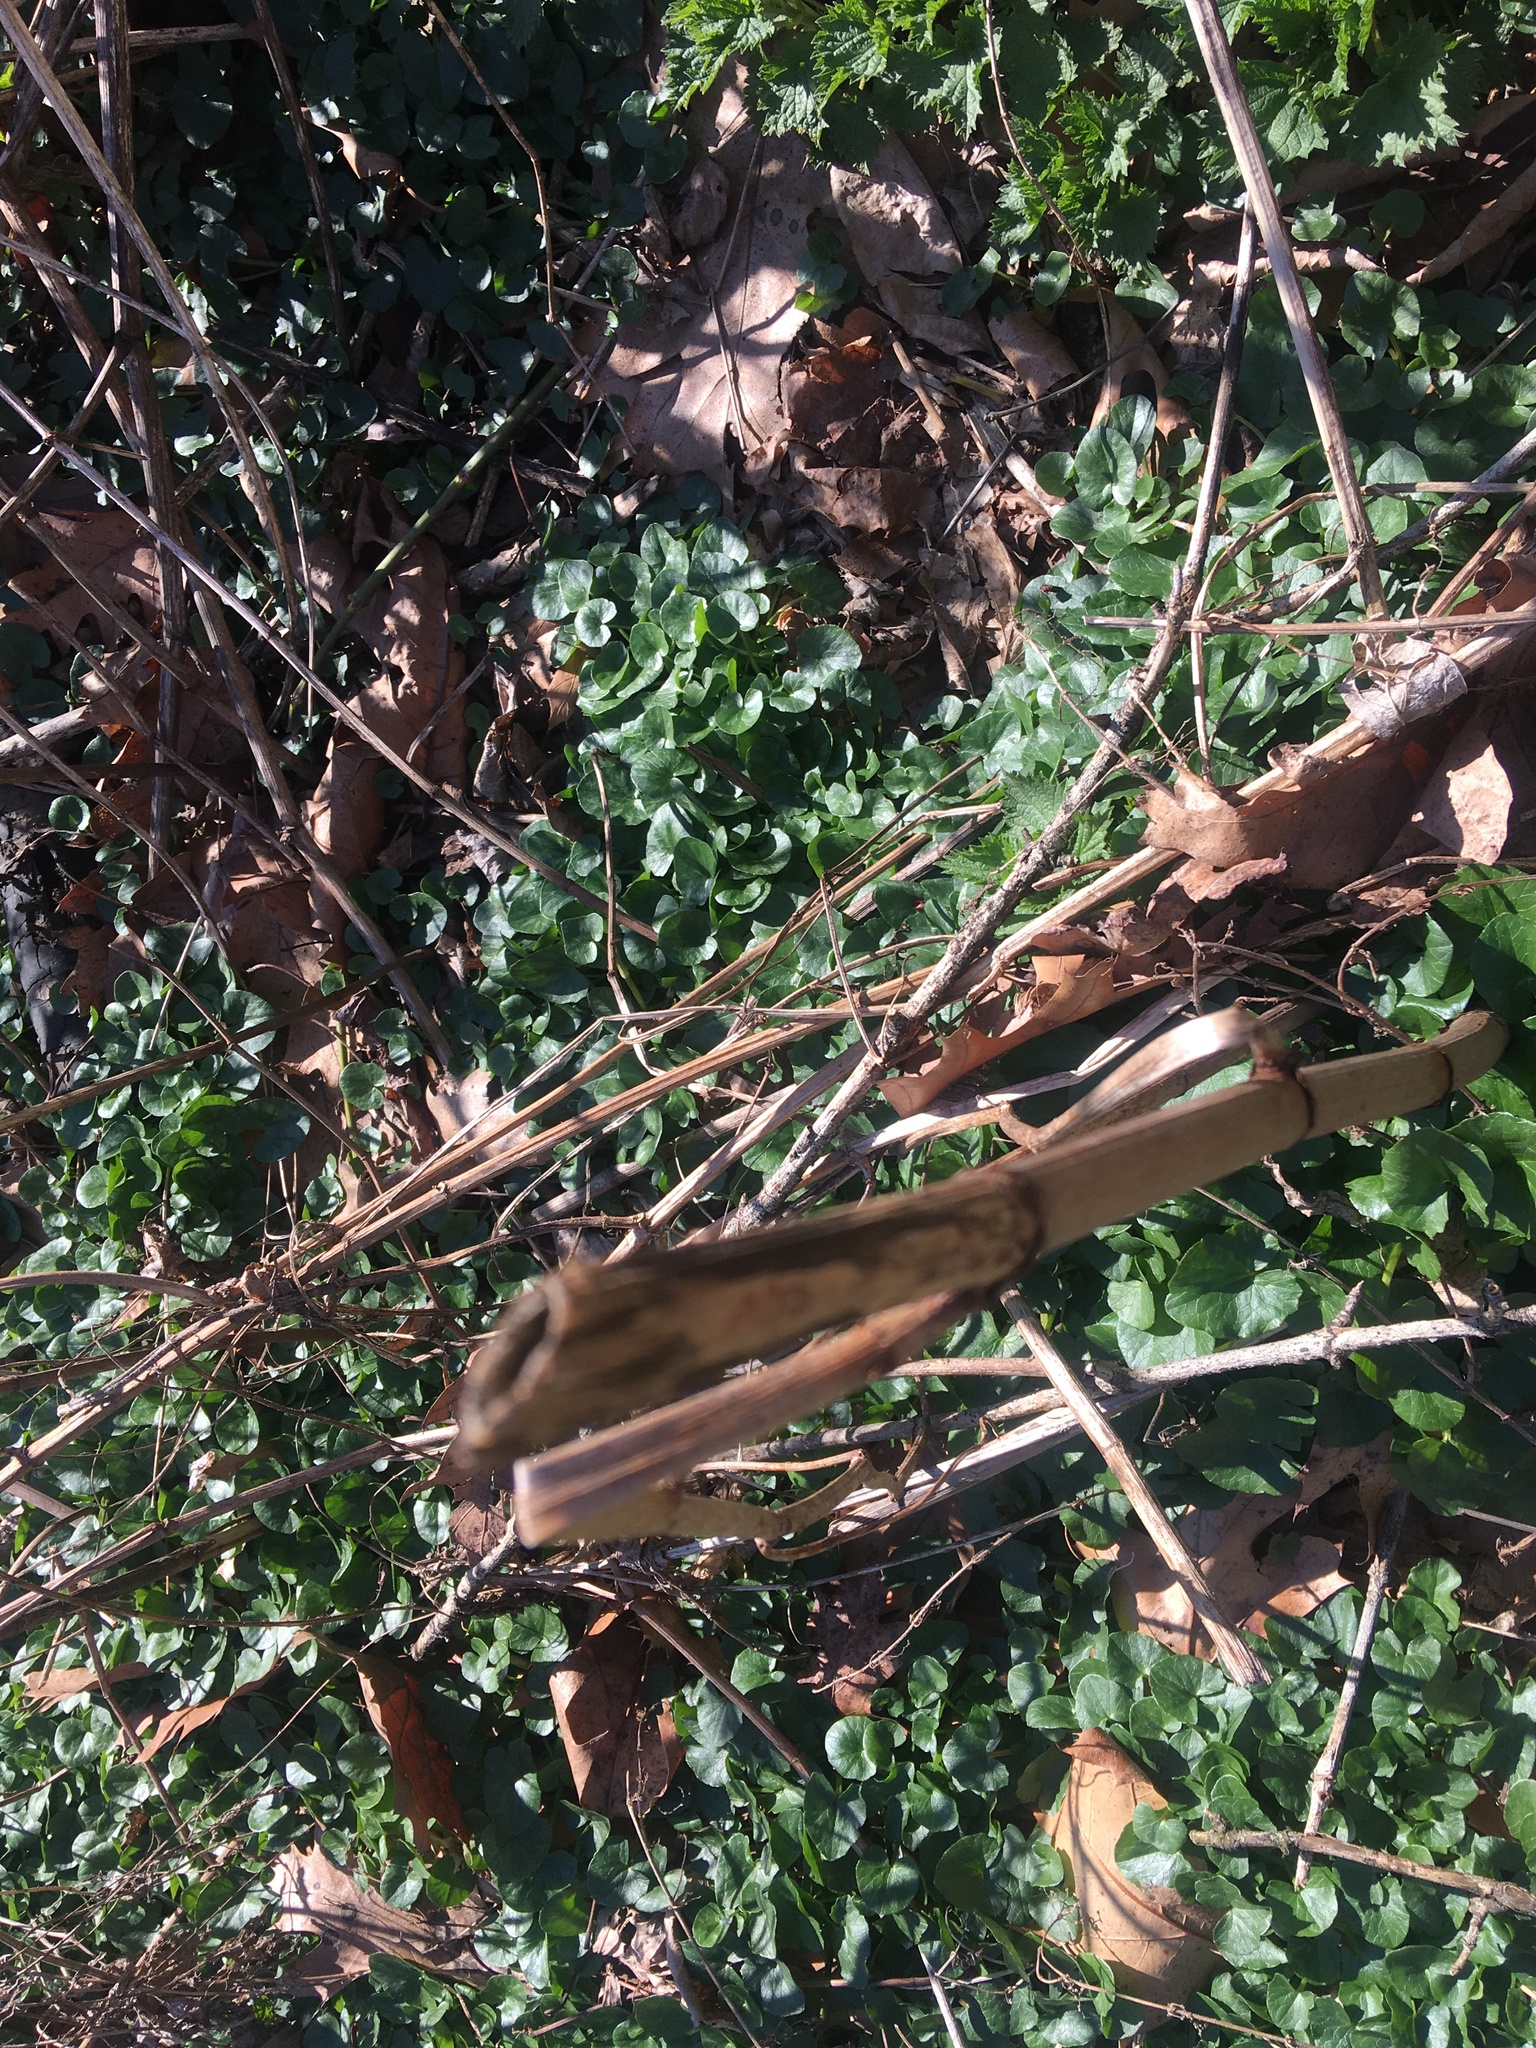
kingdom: Plantae
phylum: Tracheophyta
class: Magnoliopsida
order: Ranunculales
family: Ranunculaceae
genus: Ficaria
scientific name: Ficaria verna
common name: Lesser celandine
